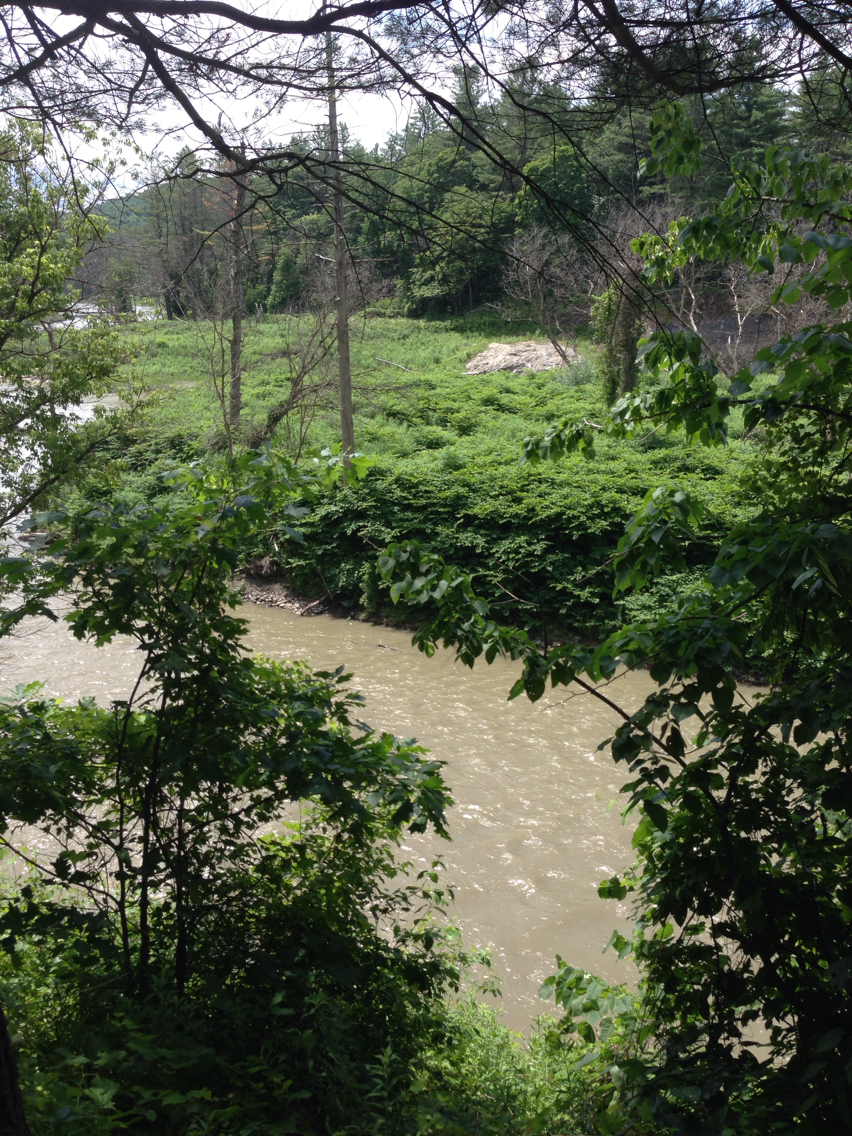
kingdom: Plantae
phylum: Tracheophyta
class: Magnoliopsida
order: Caryophyllales
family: Polygonaceae
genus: Reynoutria
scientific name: Reynoutria japonica
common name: Japanese knotweed
